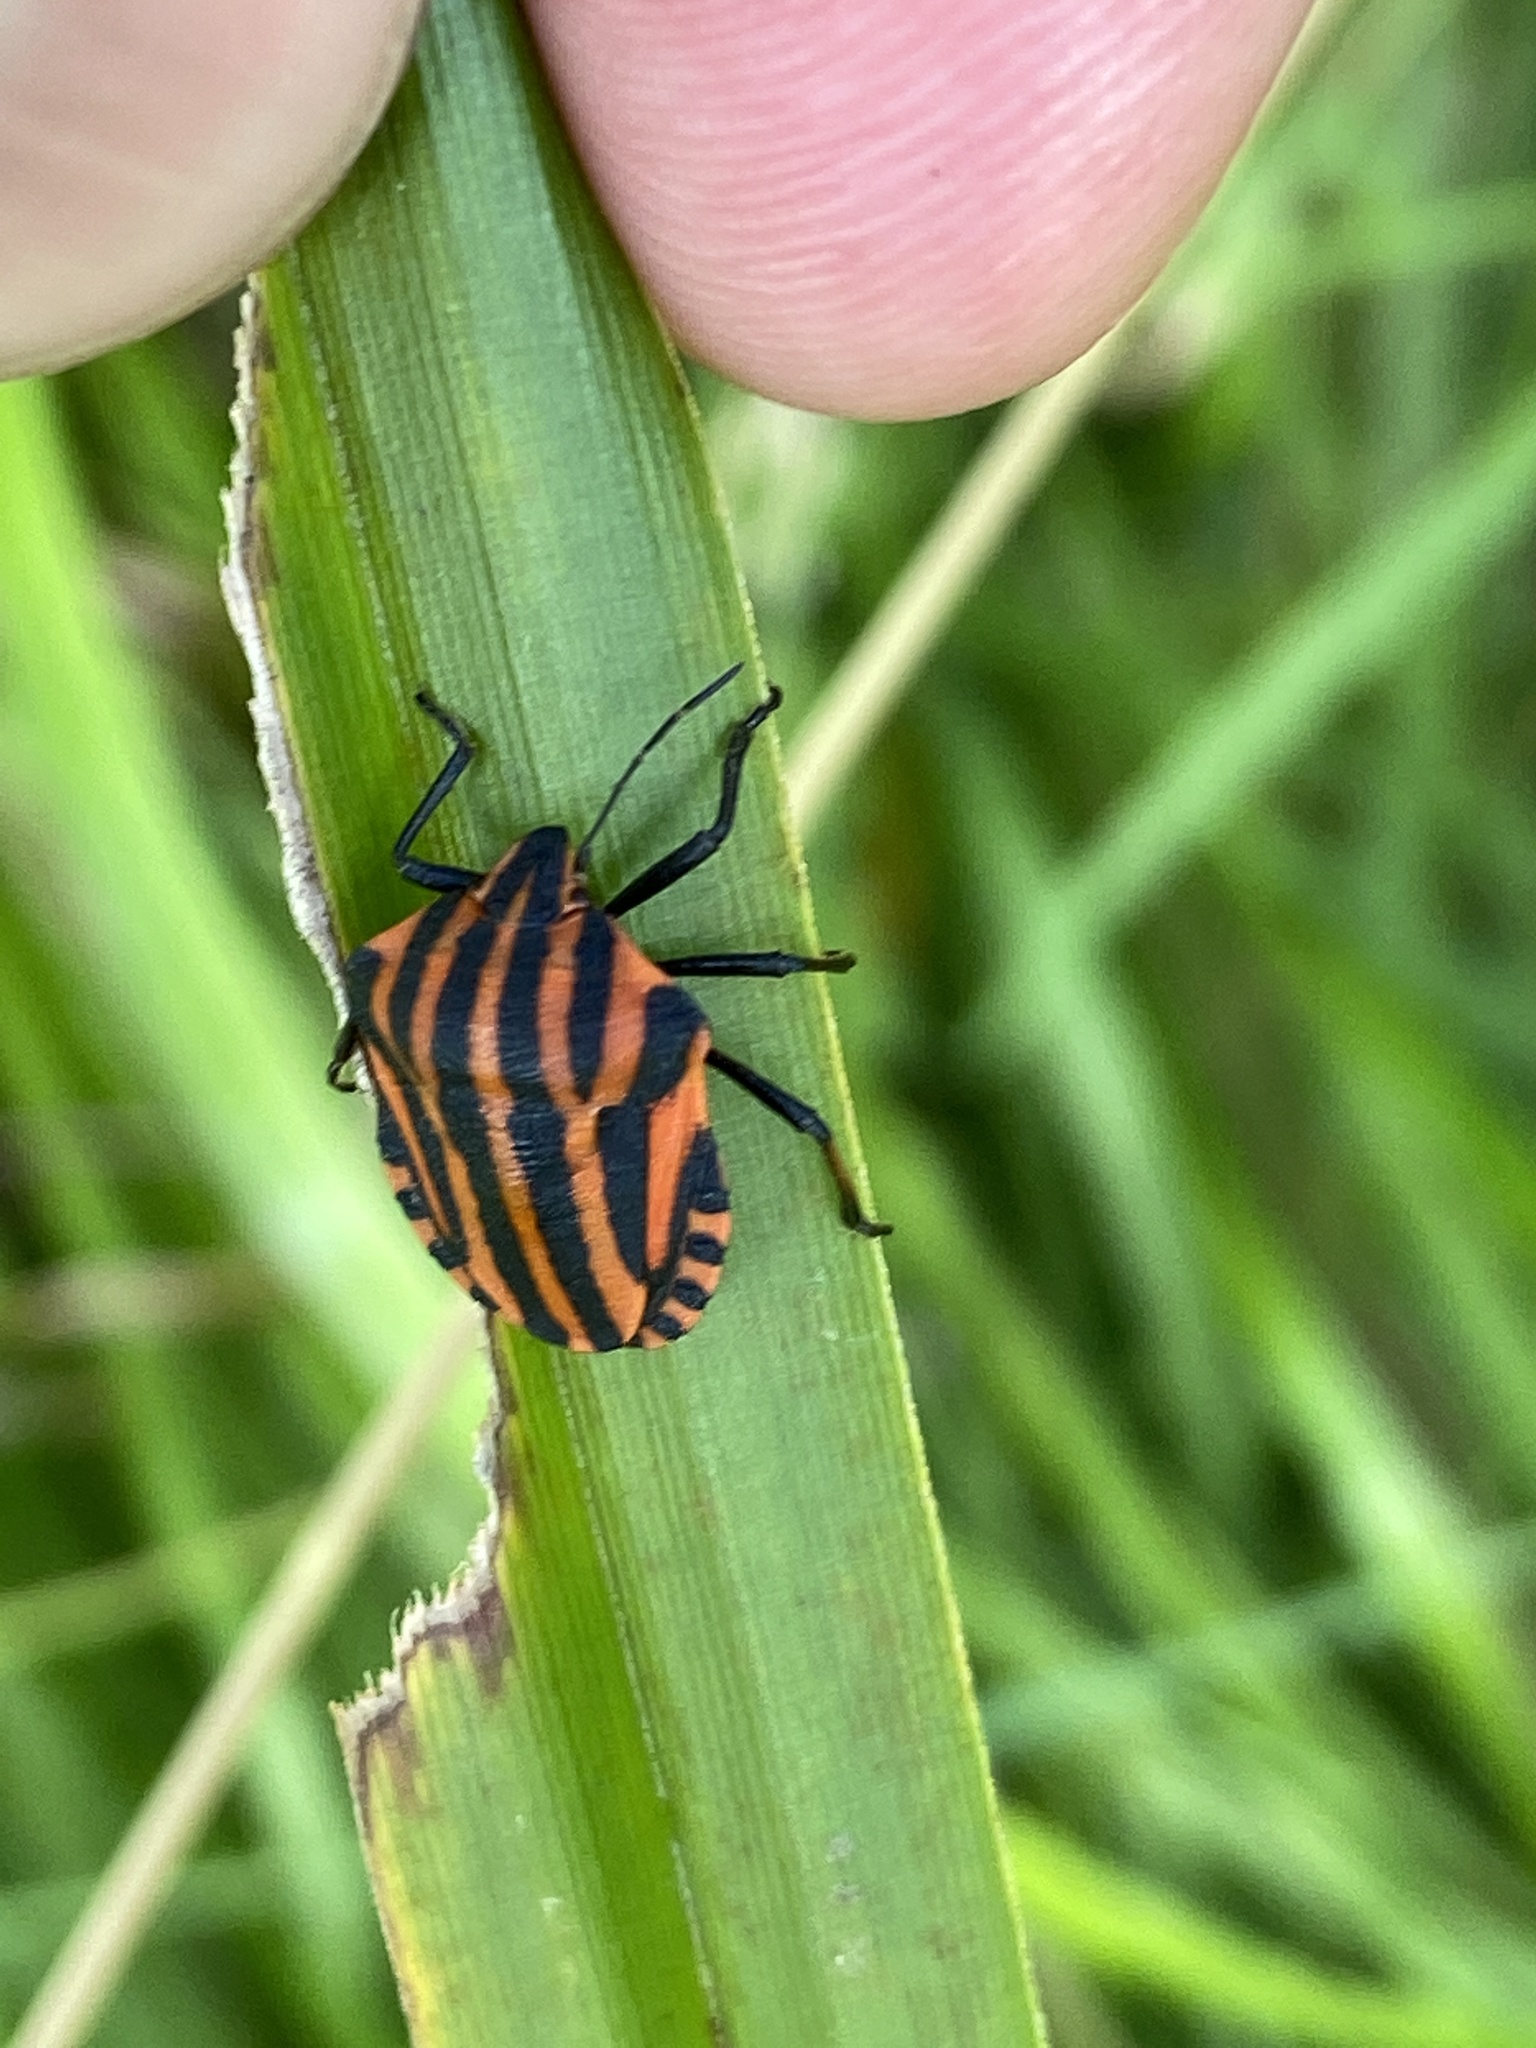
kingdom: Animalia
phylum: Arthropoda
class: Insecta
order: Hemiptera
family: Pentatomidae
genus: Graphosoma
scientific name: Graphosoma italicum
